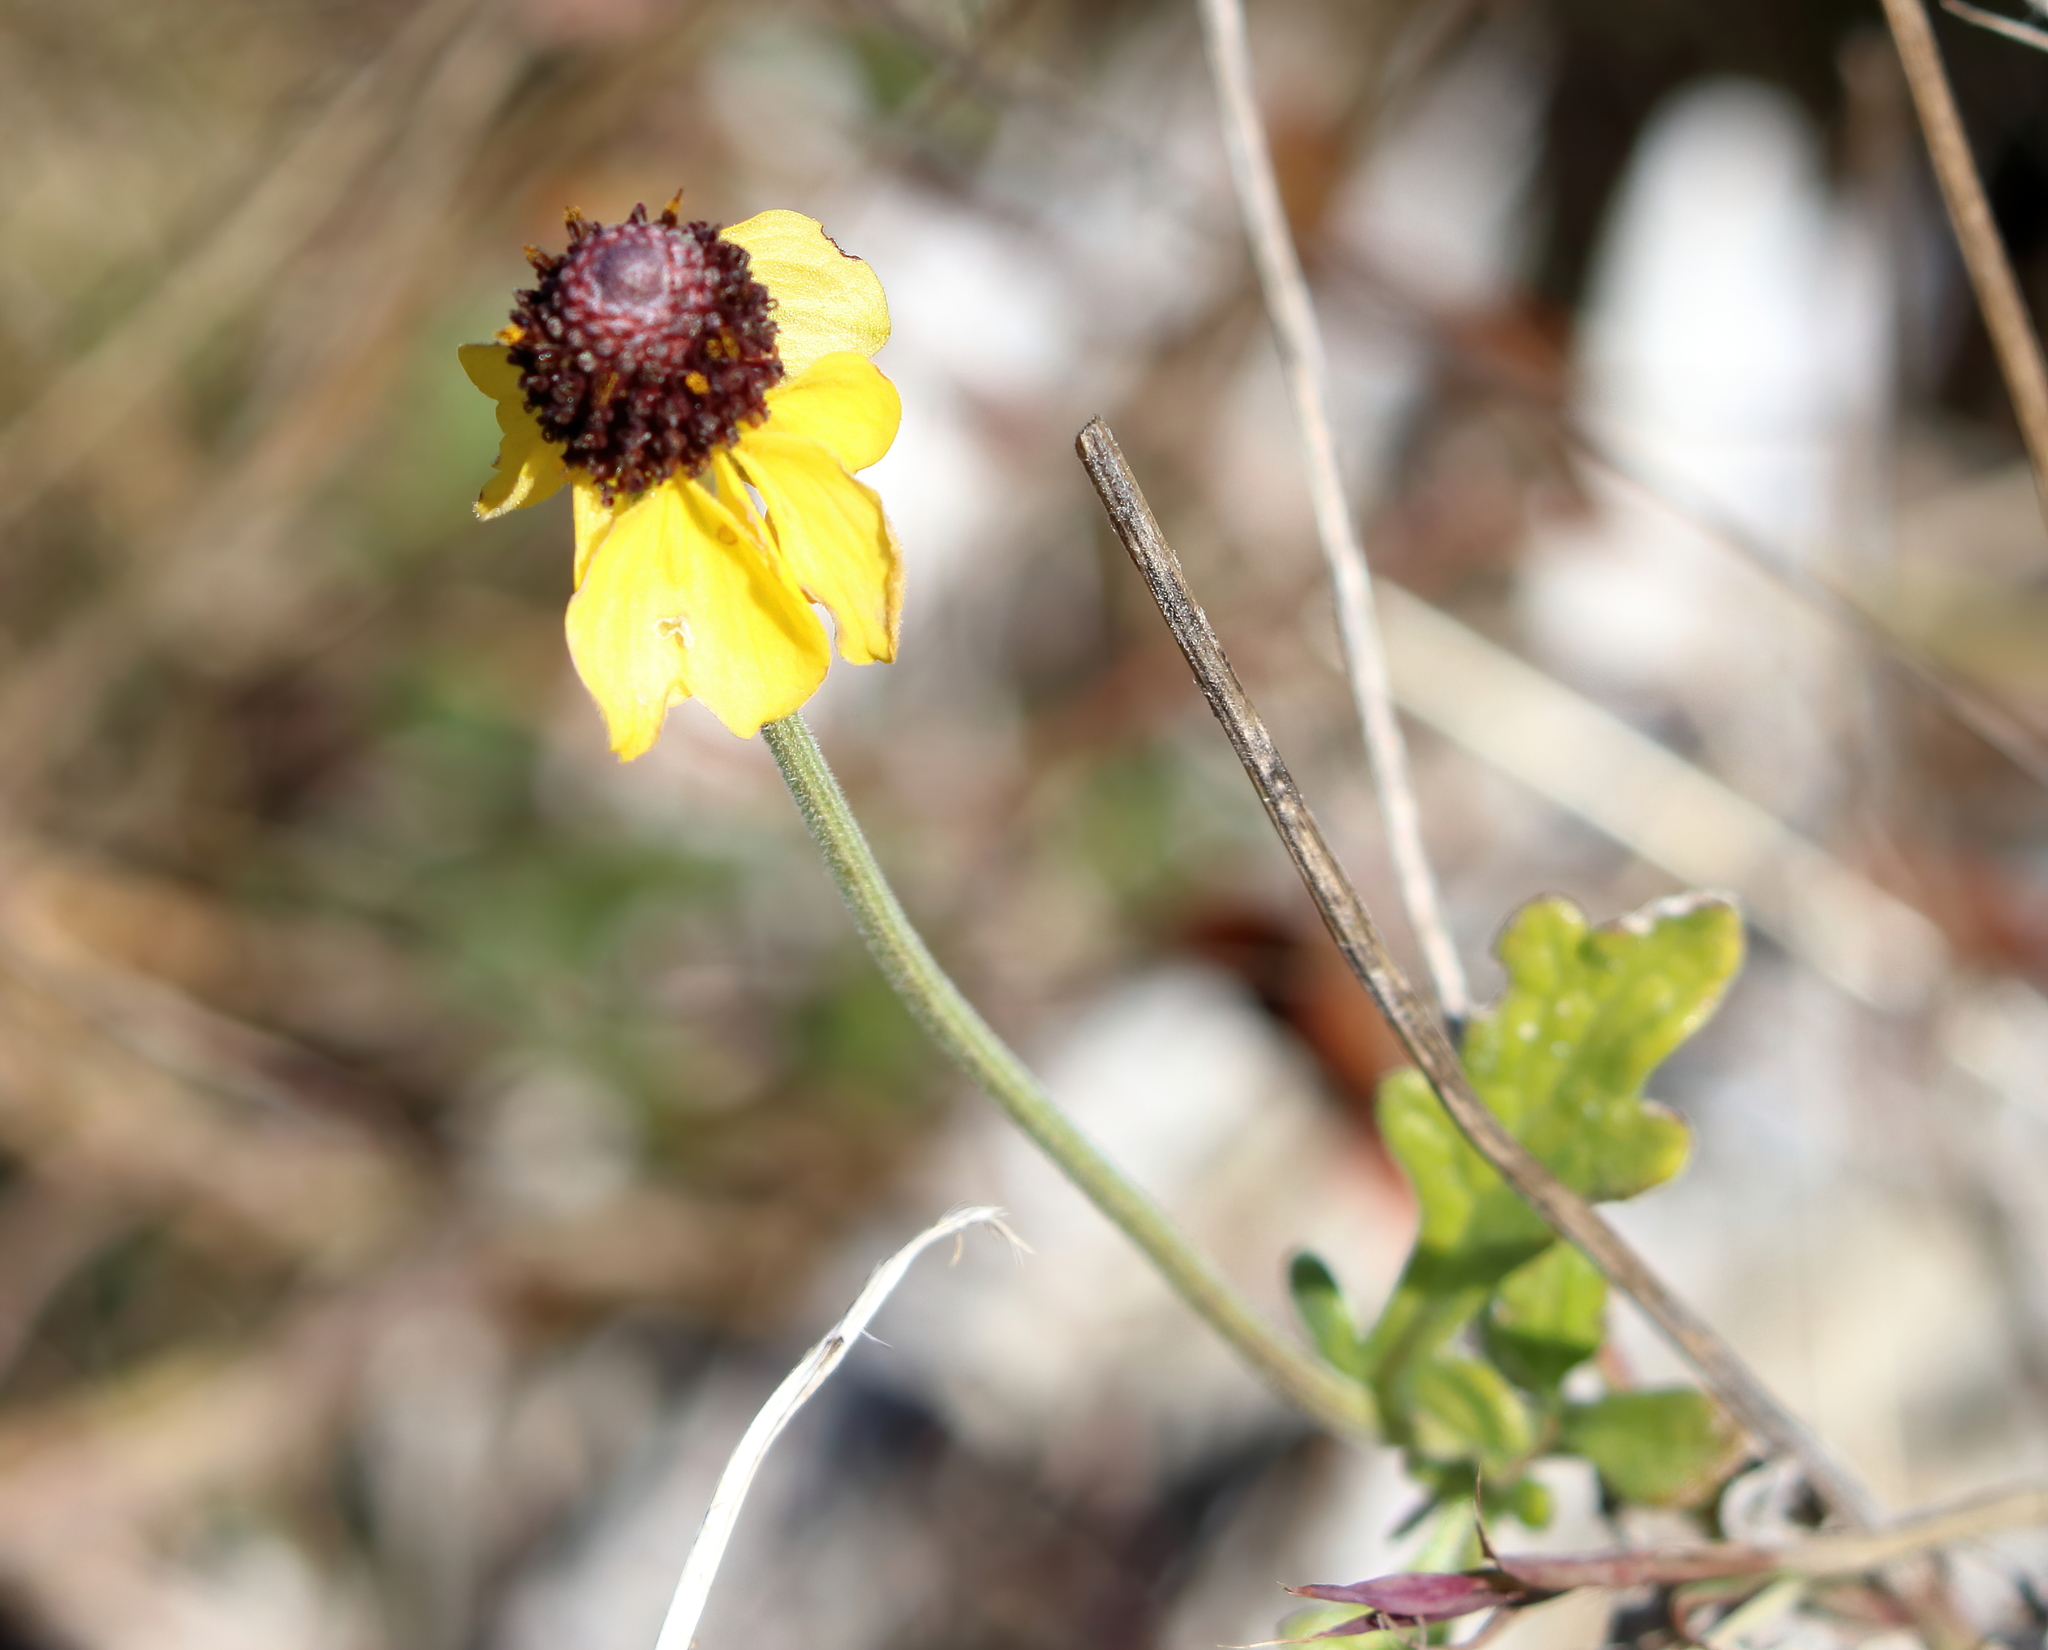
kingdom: Plantae
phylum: Tracheophyta
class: Magnoliopsida
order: Asterales
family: Asteraceae
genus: Rudbeckia
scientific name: Rudbeckia hirta
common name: Black-eyed-susan
